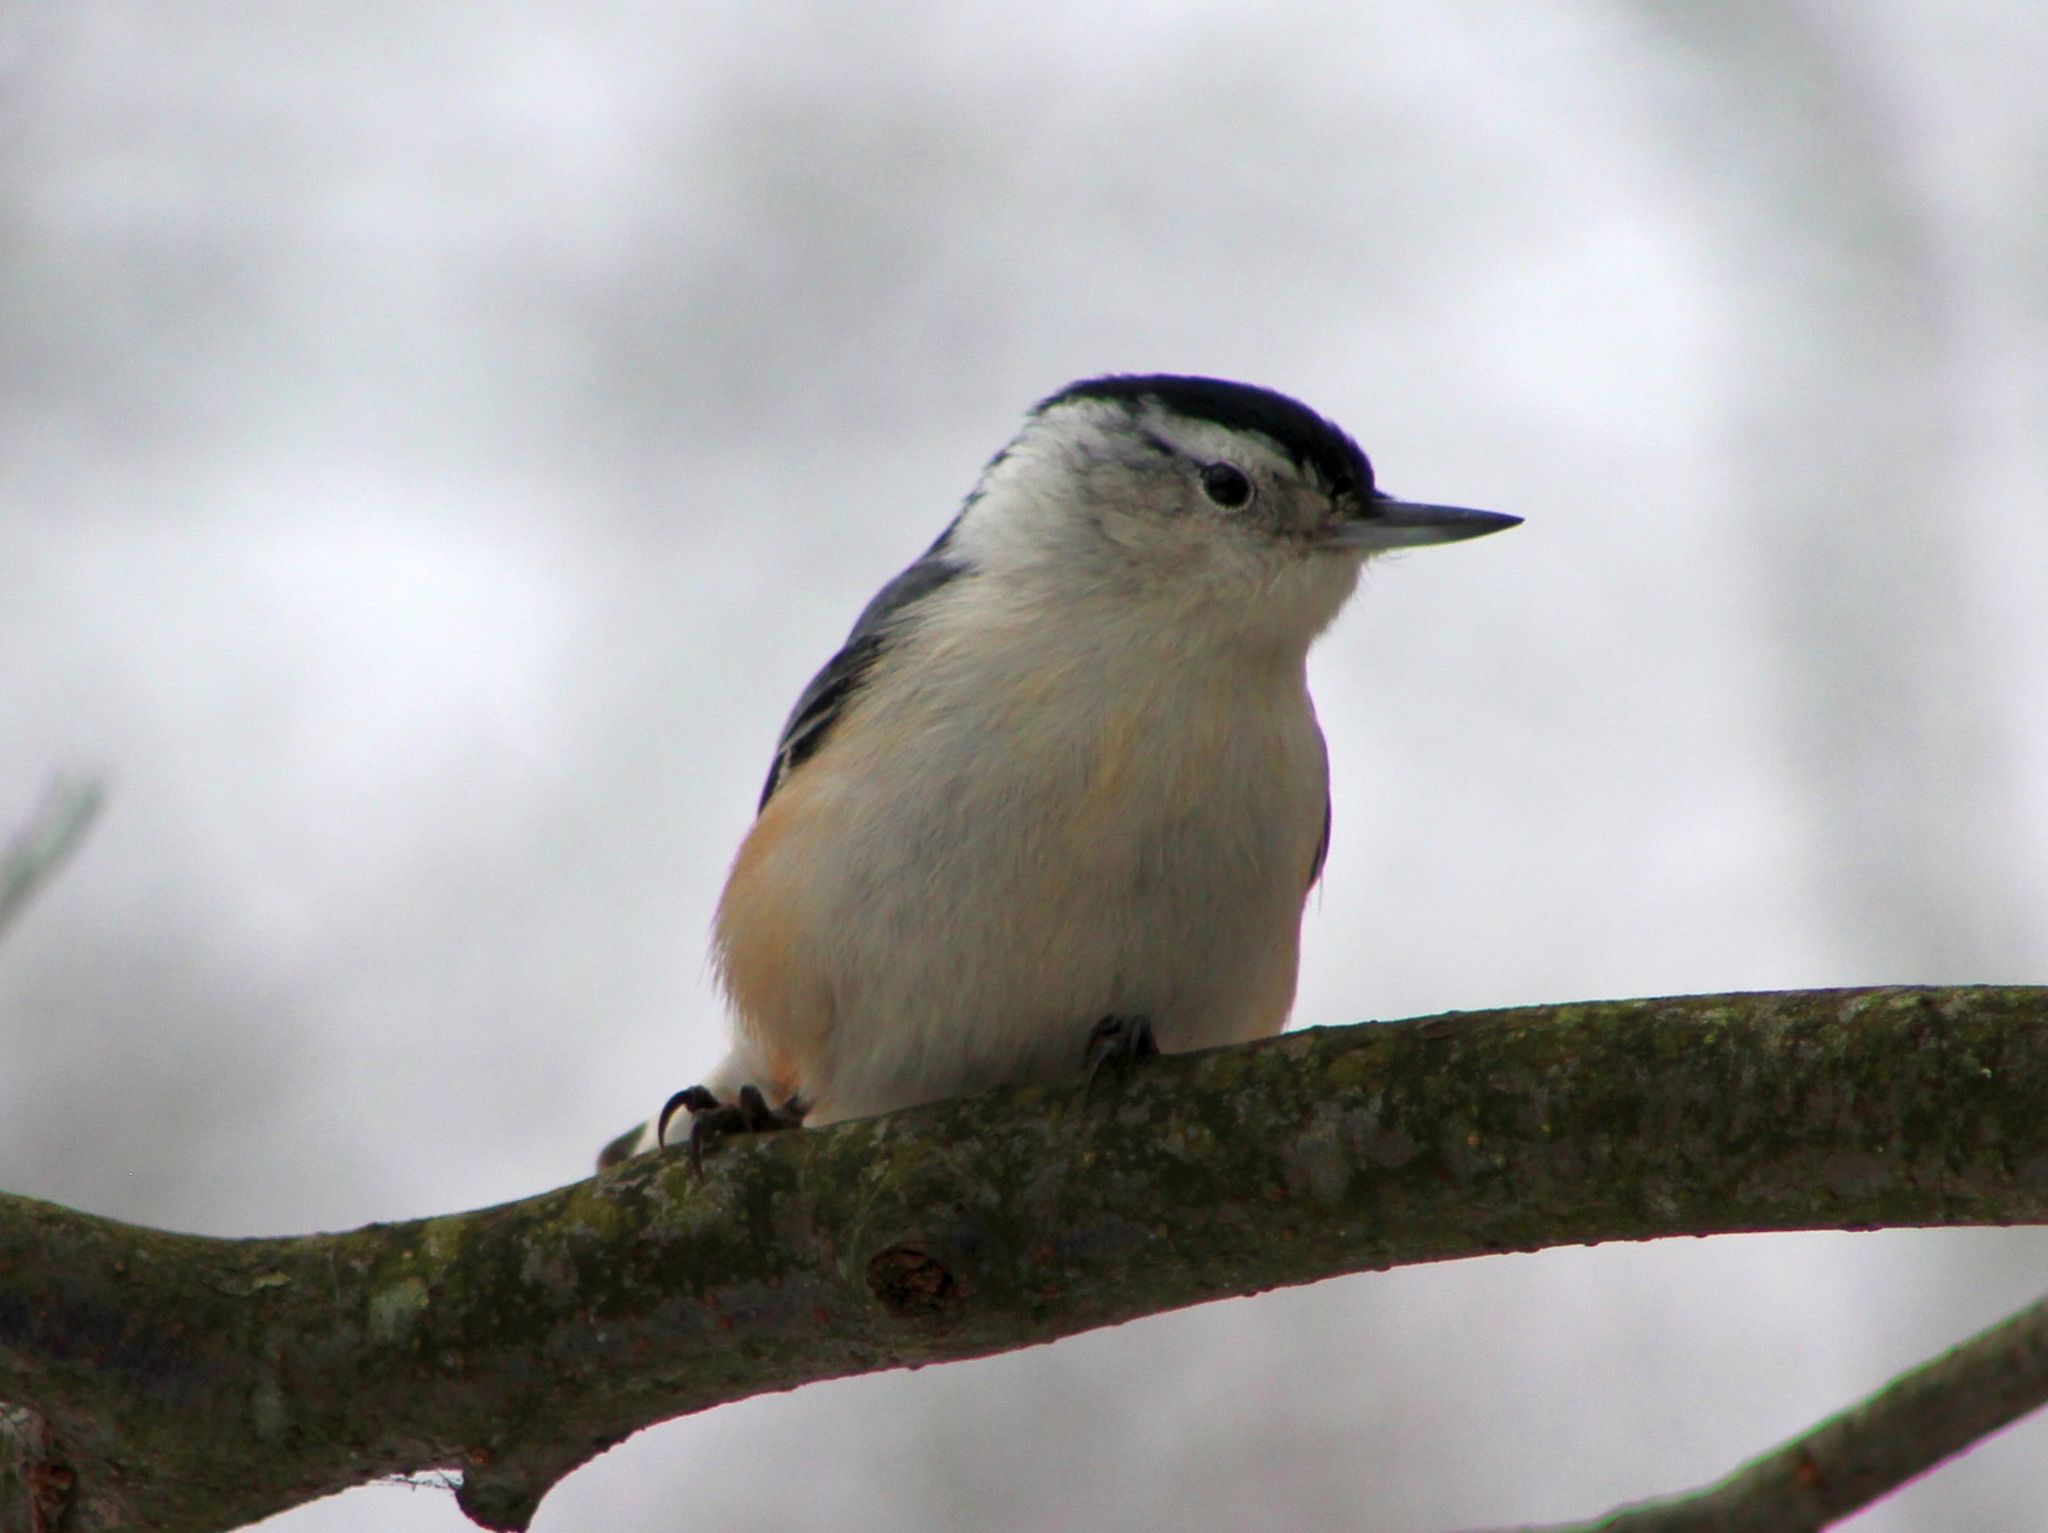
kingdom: Animalia
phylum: Chordata
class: Aves
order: Passeriformes
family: Sittidae
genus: Sitta
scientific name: Sitta carolinensis
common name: White-breasted nuthatch
